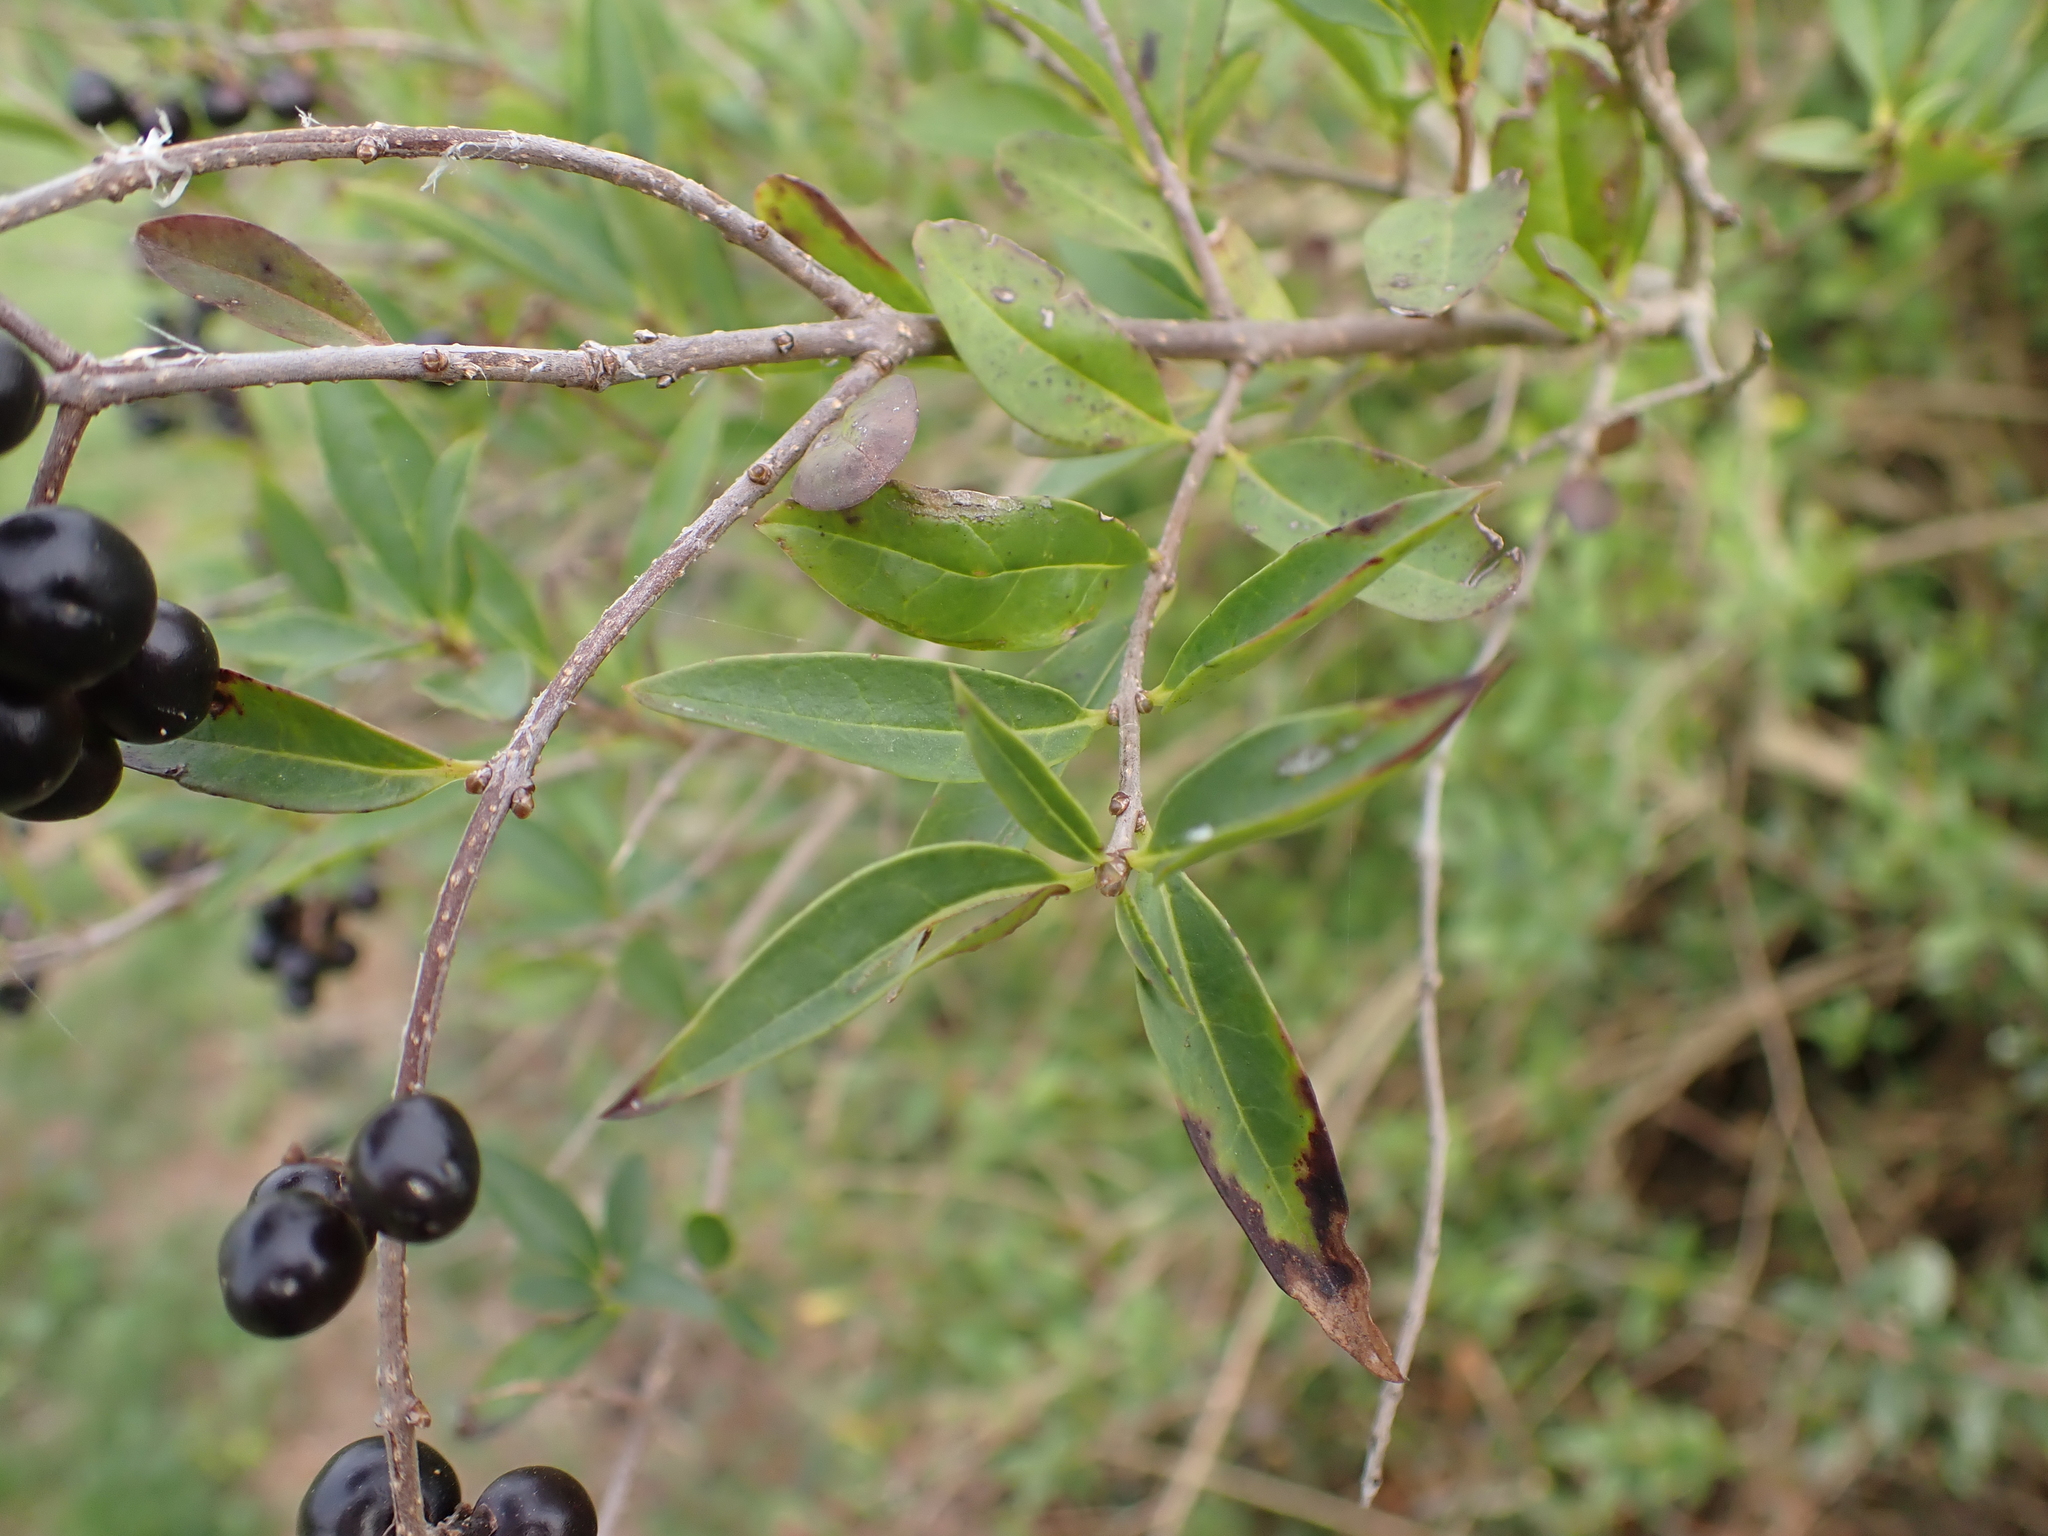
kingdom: Plantae
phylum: Tracheophyta
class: Magnoliopsida
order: Lamiales
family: Oleaceae
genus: Ligustrum
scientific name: Ligustrum vulgare
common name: Wild privet
